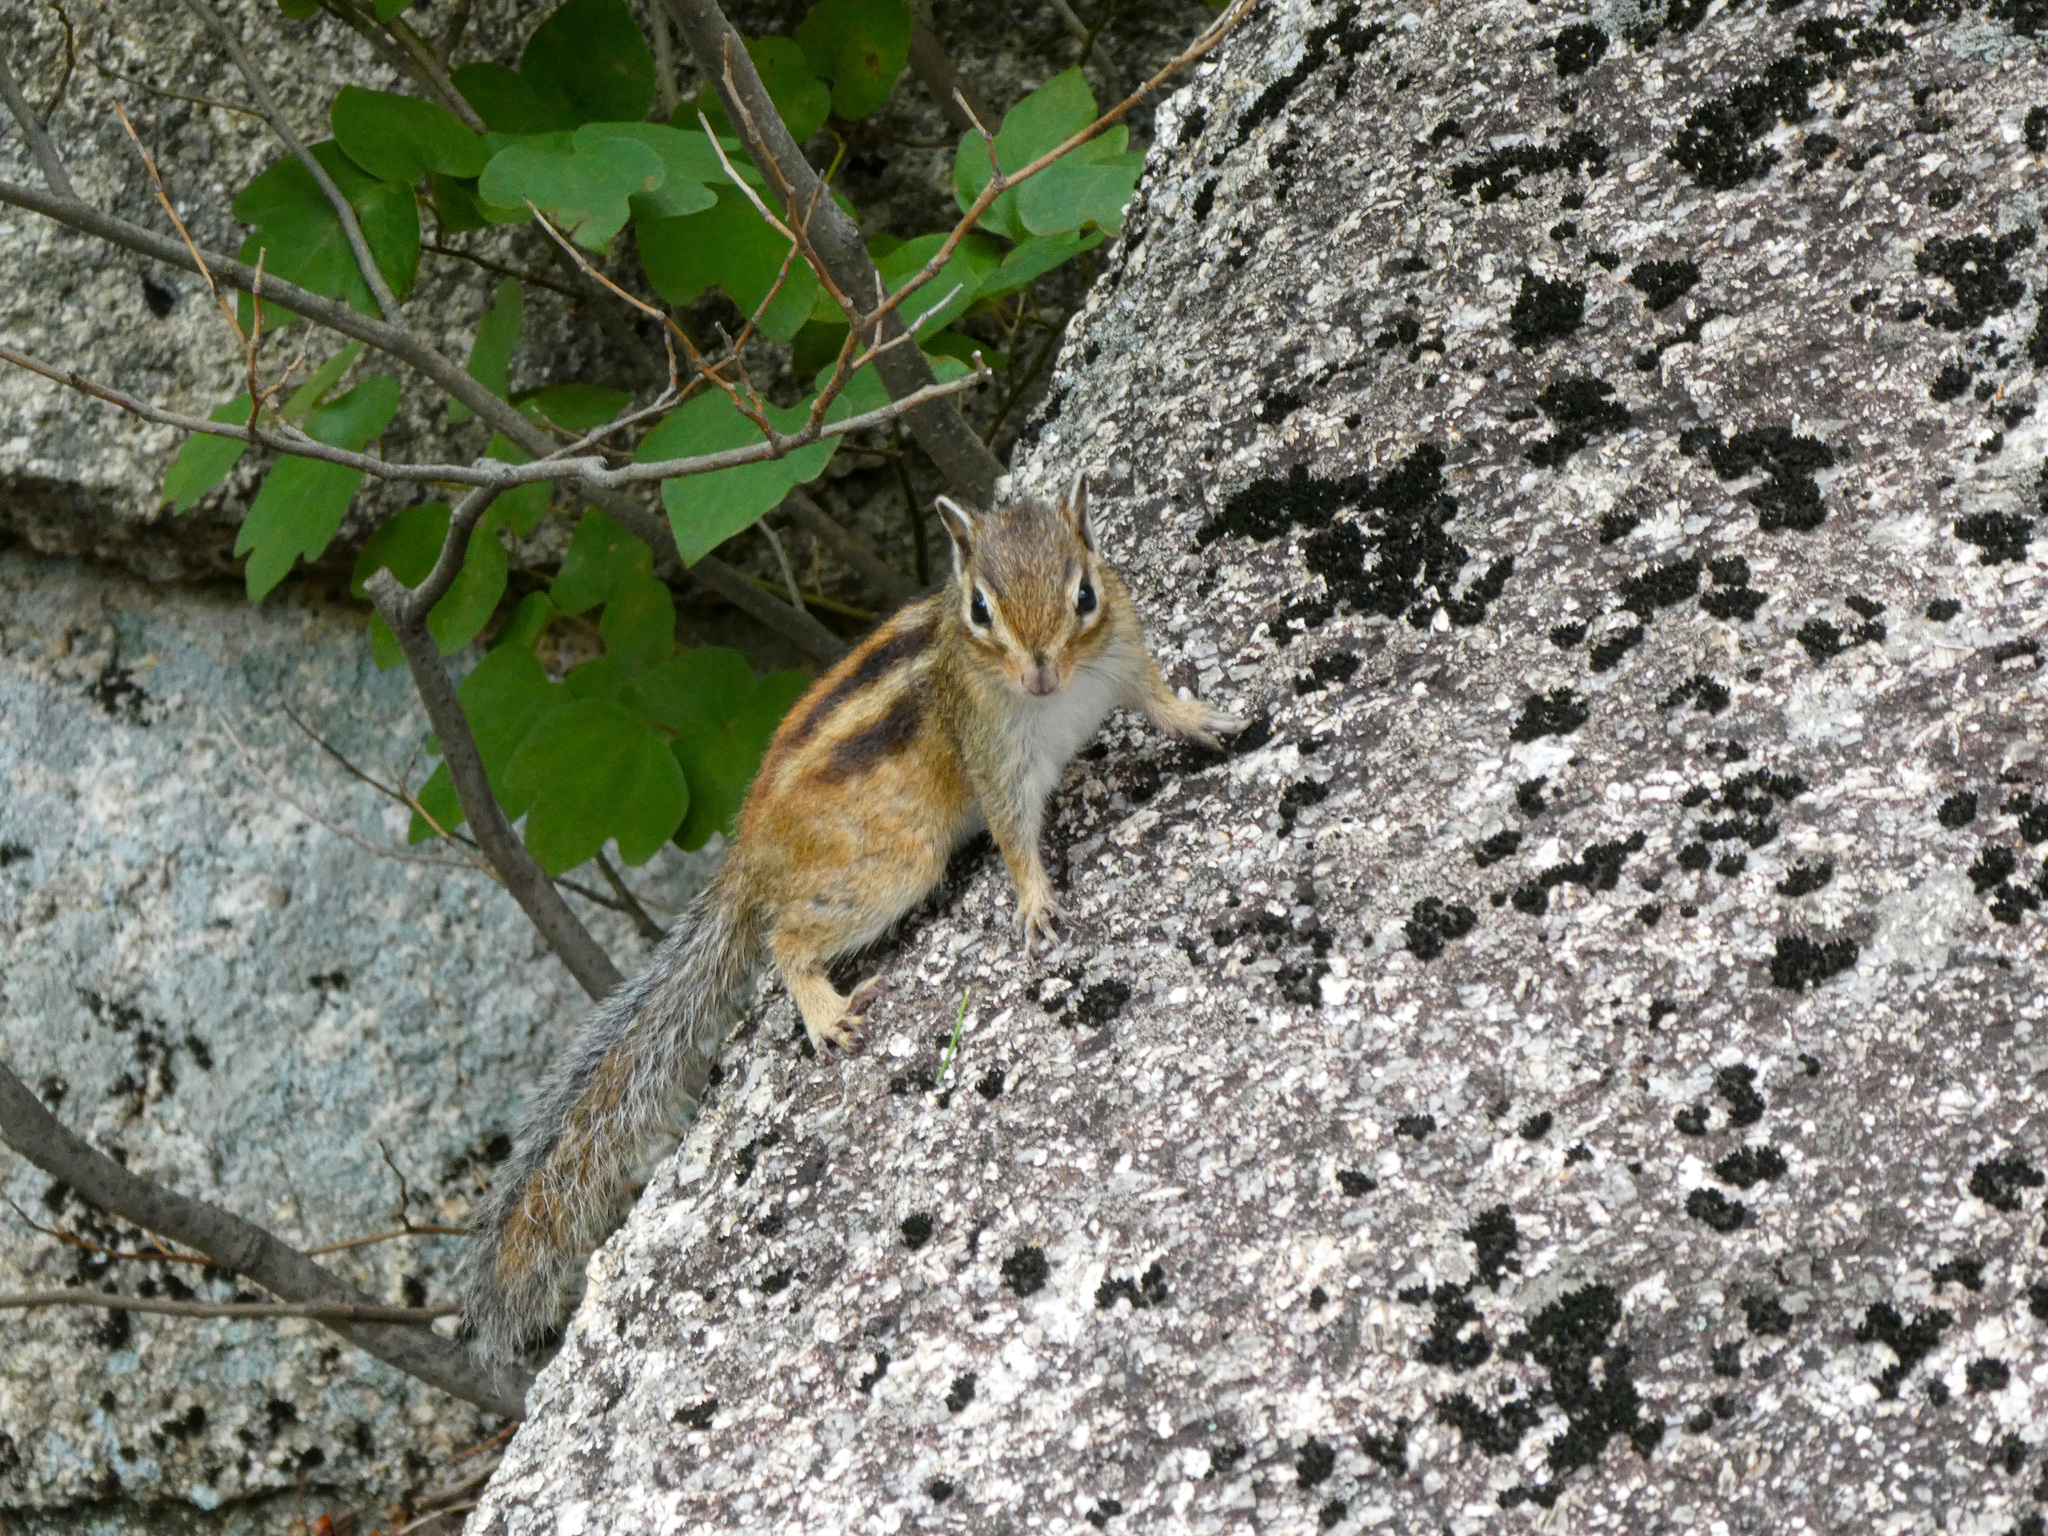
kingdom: Animalia
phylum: Chordata
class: Mammalia
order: Rodentia
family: Sciuridae
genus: Tamias
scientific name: Tamias sibiricus
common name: Siberian chipmunk
